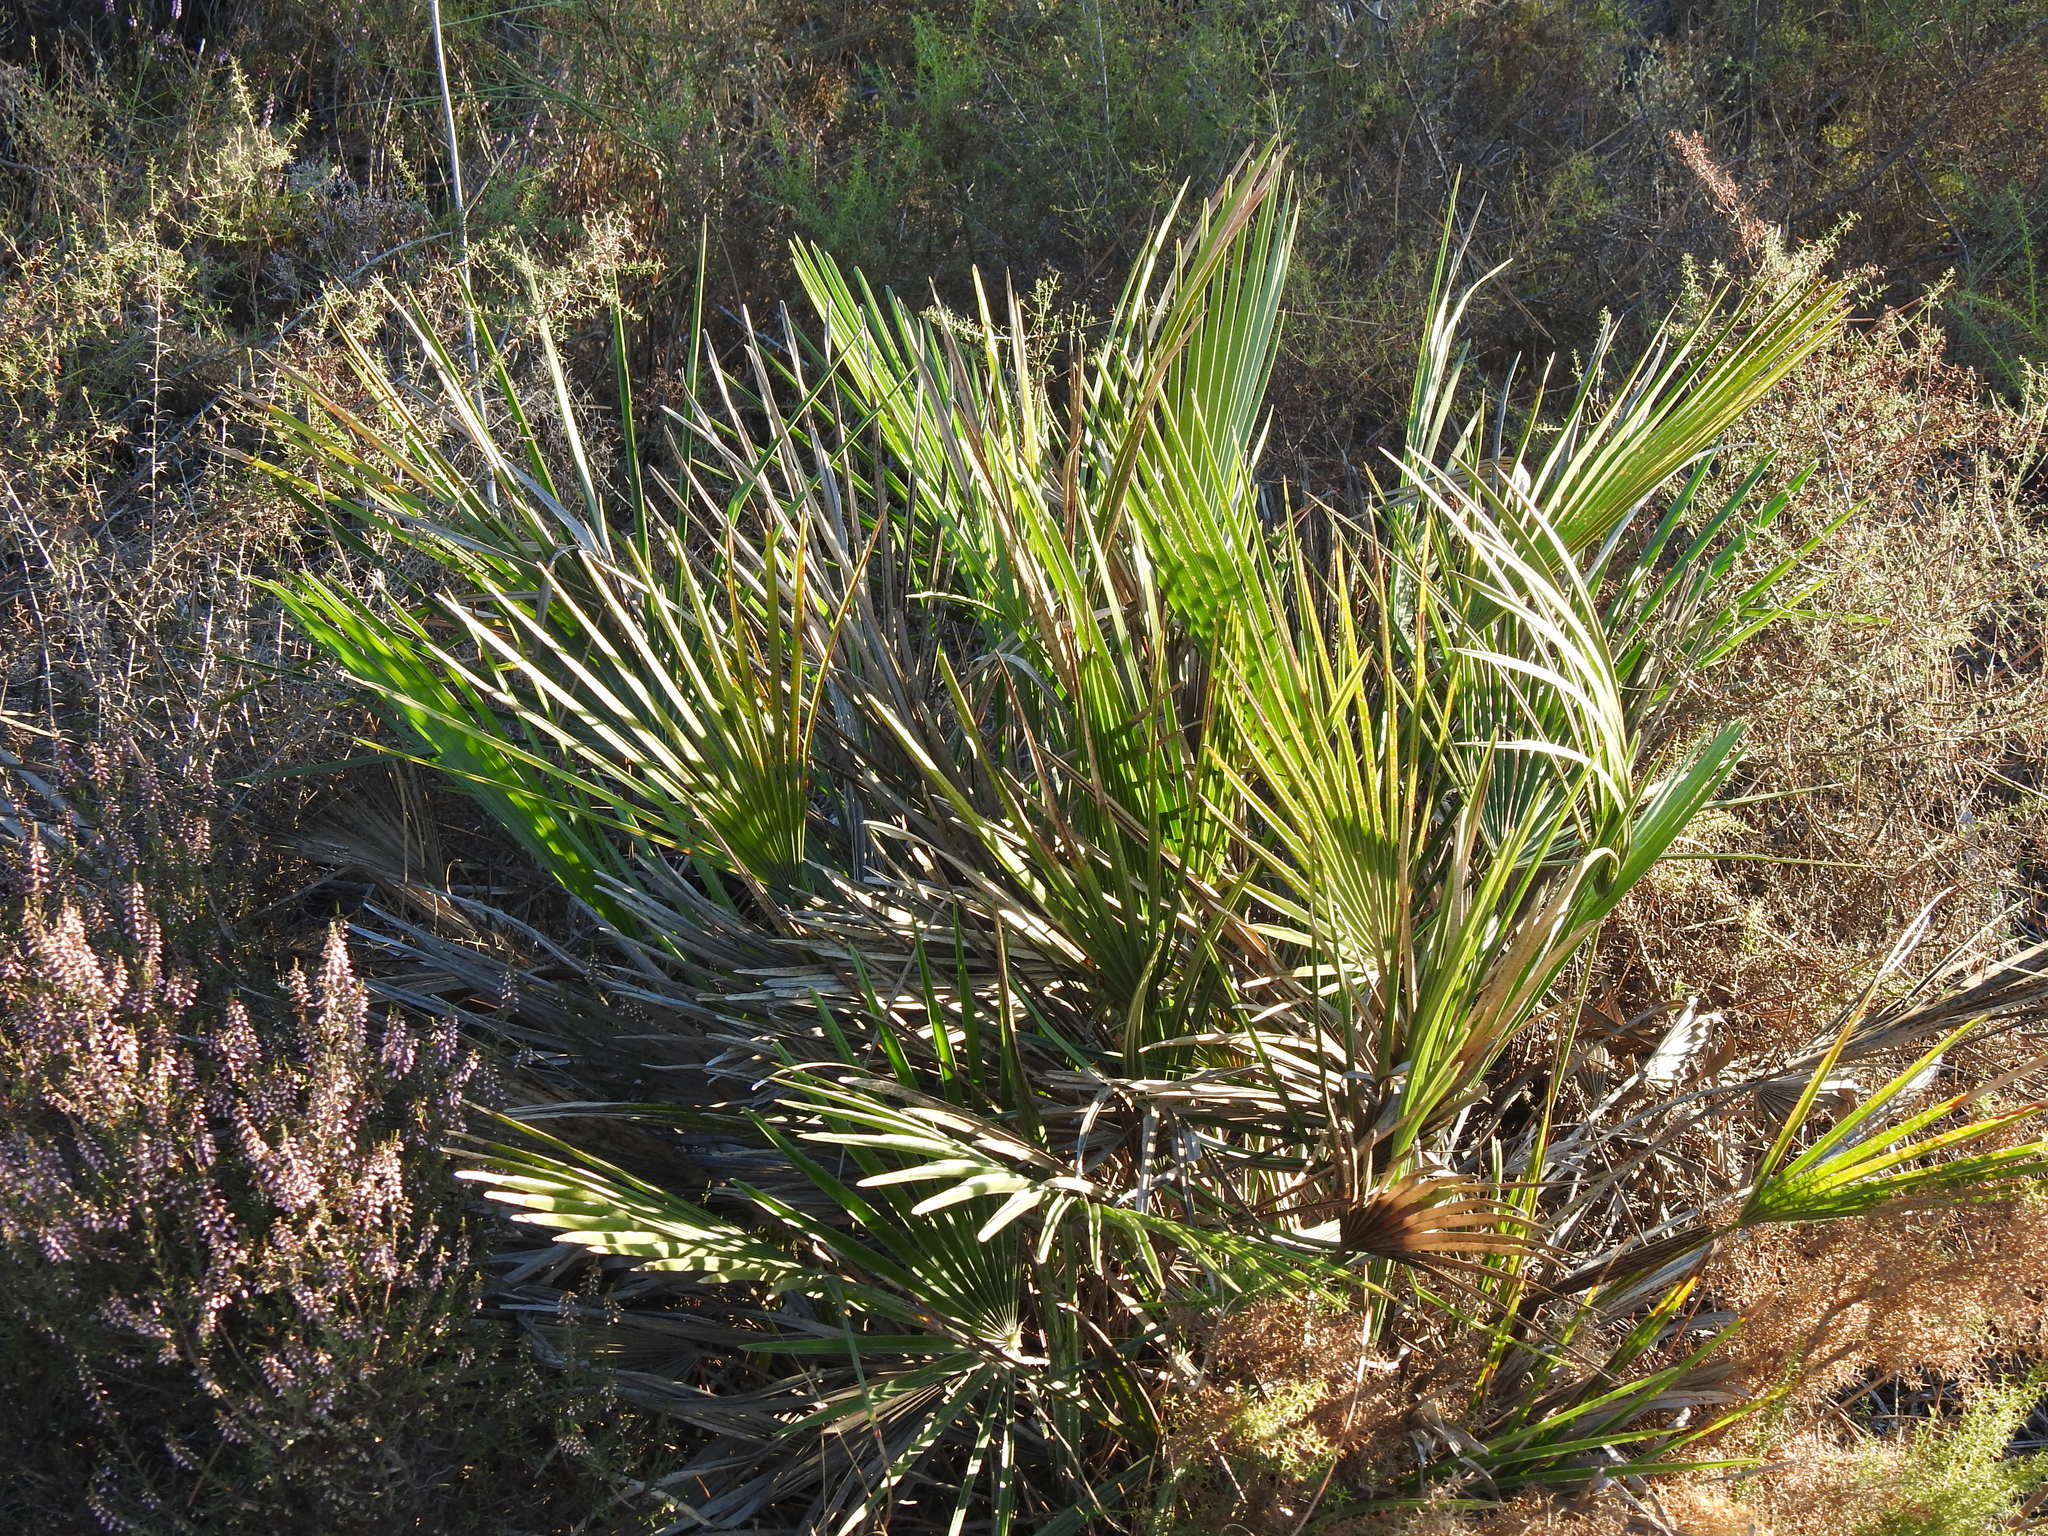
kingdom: Plantae
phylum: Tracheophyta
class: Liliopsida
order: Arecales
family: Arecaceae
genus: Chamaerops
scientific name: Chamaerops humilis
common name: Dwarf fan palm
